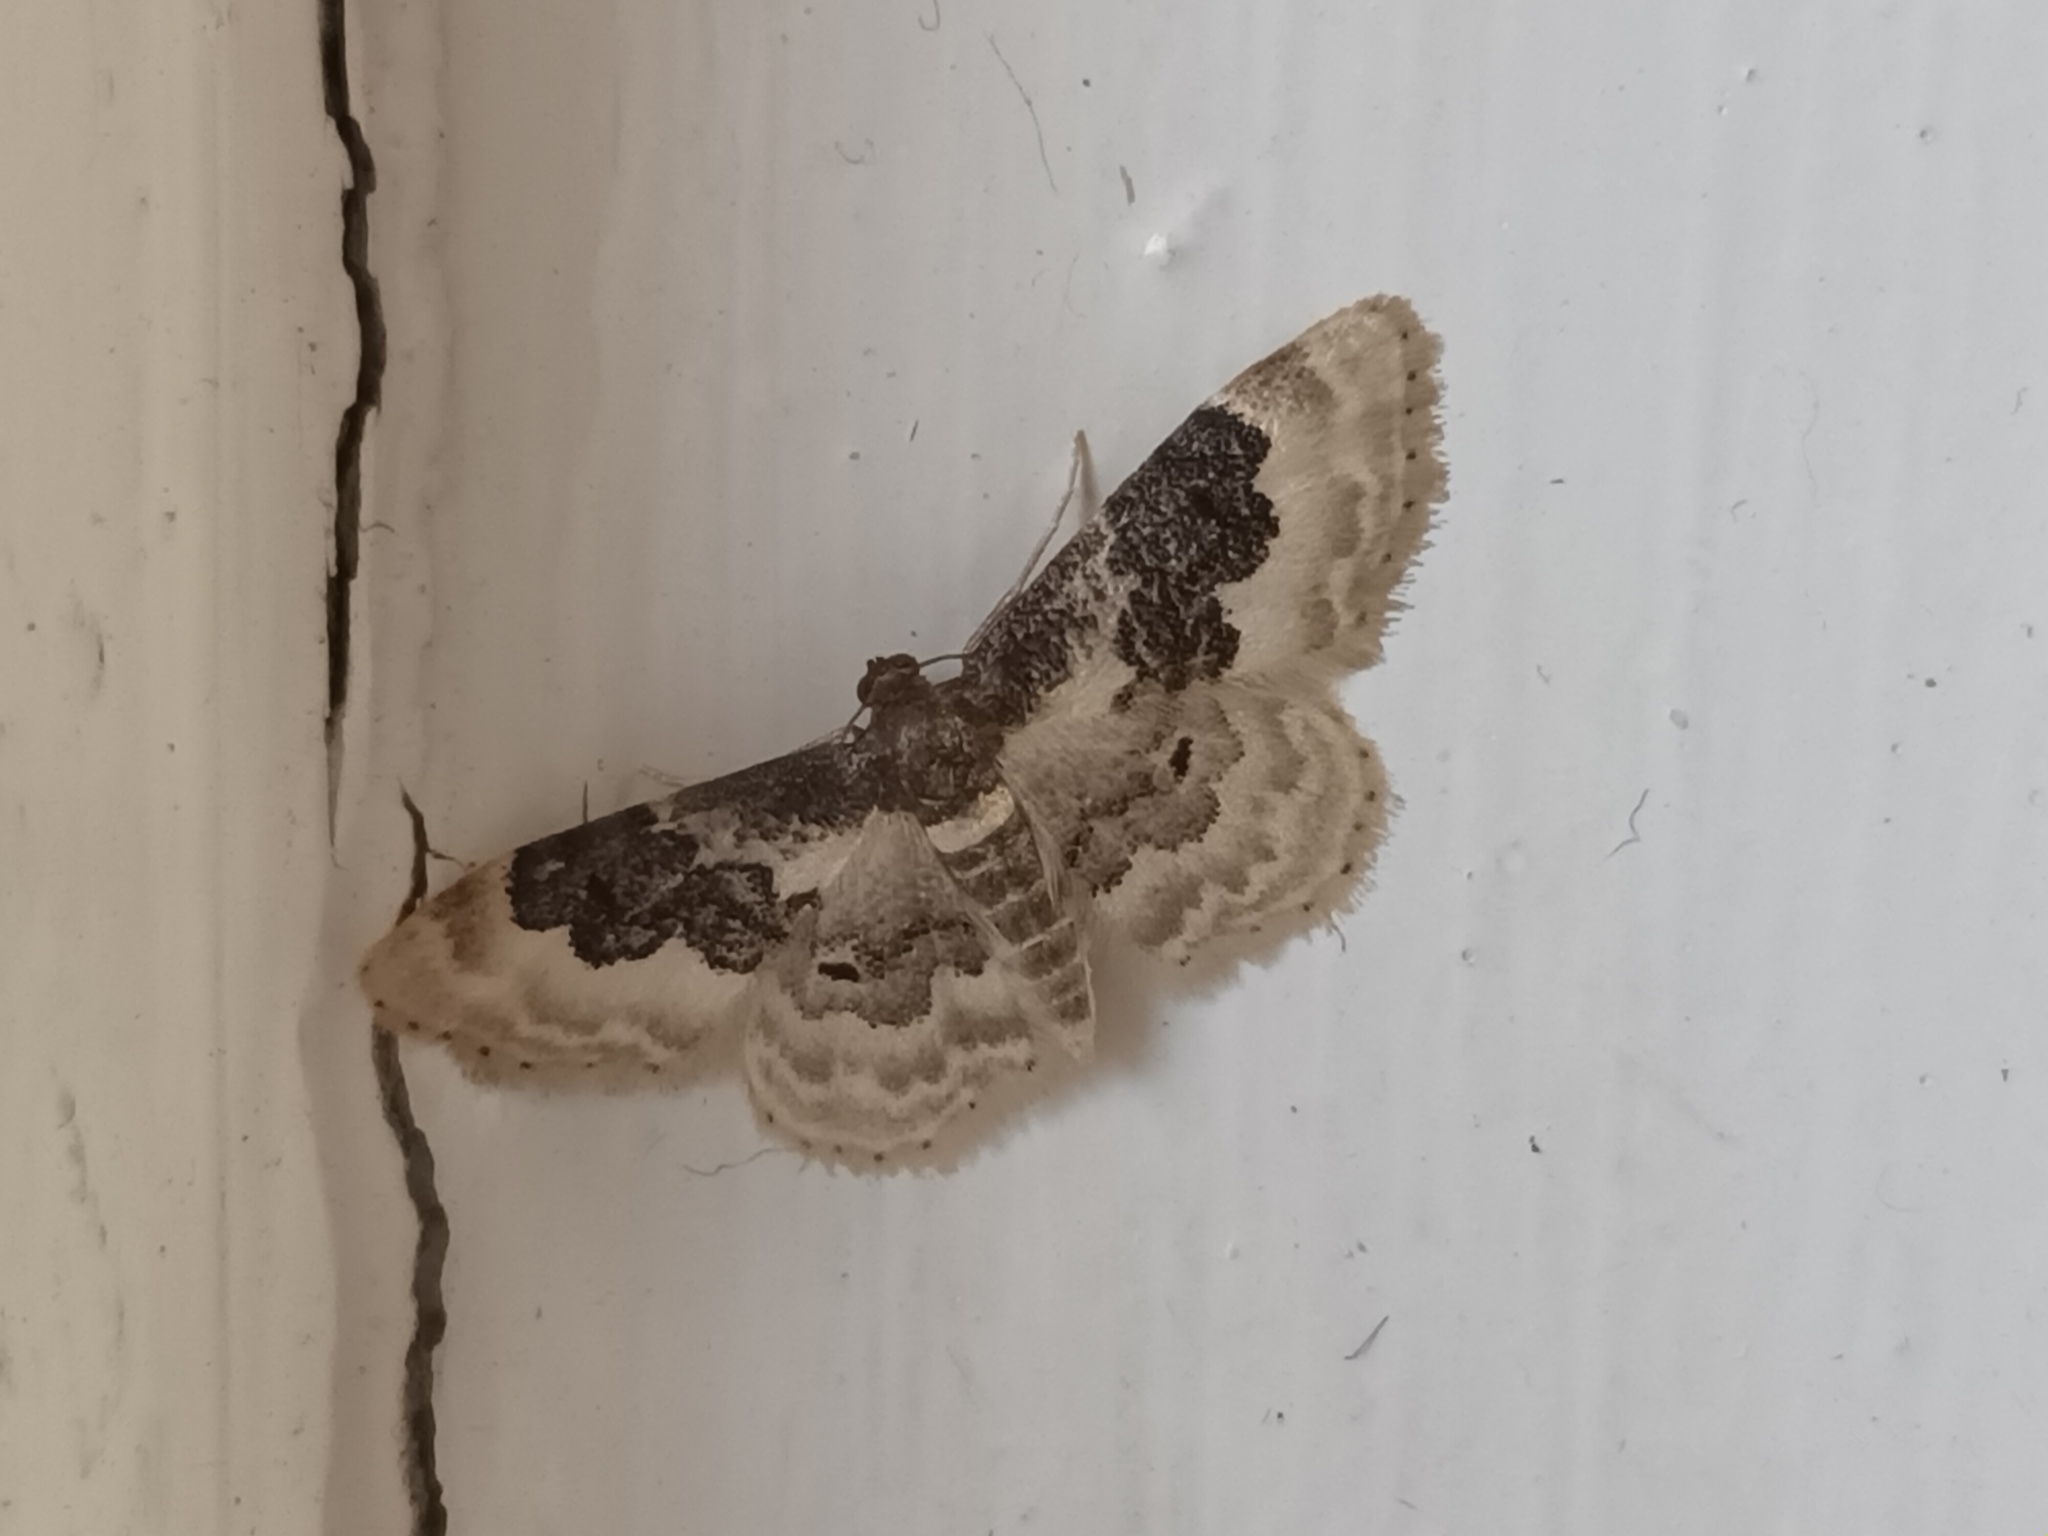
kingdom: Animalia
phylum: Arthropoda
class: Insecta
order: Lepidoptera
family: Geometridae
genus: Idaea
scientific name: Idaea rusticata
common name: Least carpet
